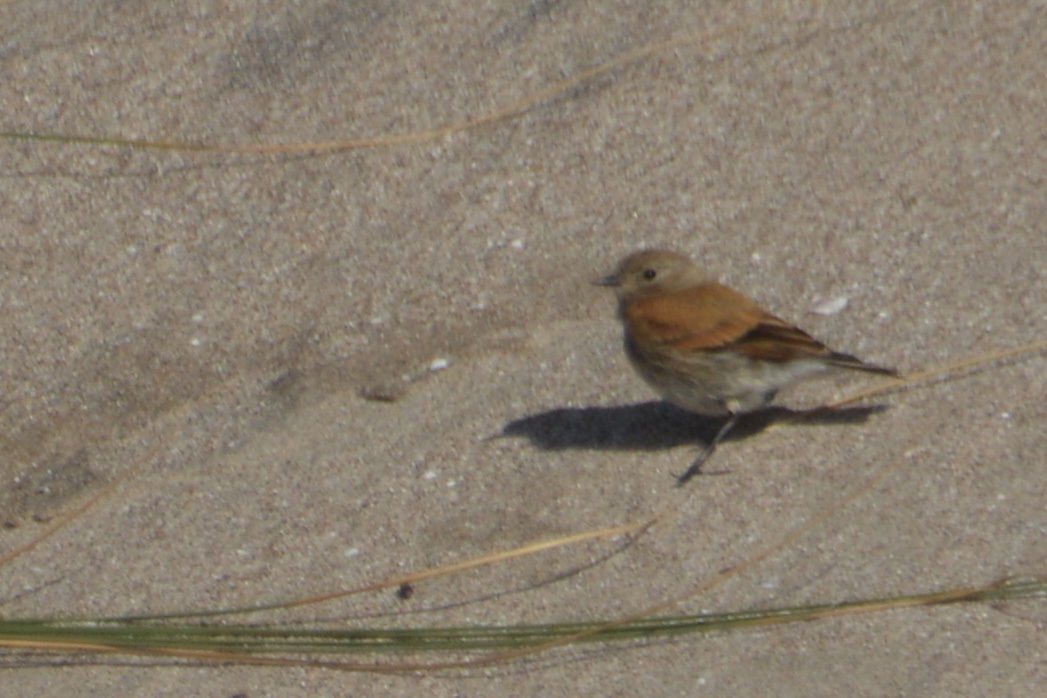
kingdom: Animalia
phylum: Chordata
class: Aves
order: Passeriformes
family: Tyrannidae
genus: Lessonia
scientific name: Lessonia rufa
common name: Austral negrito
